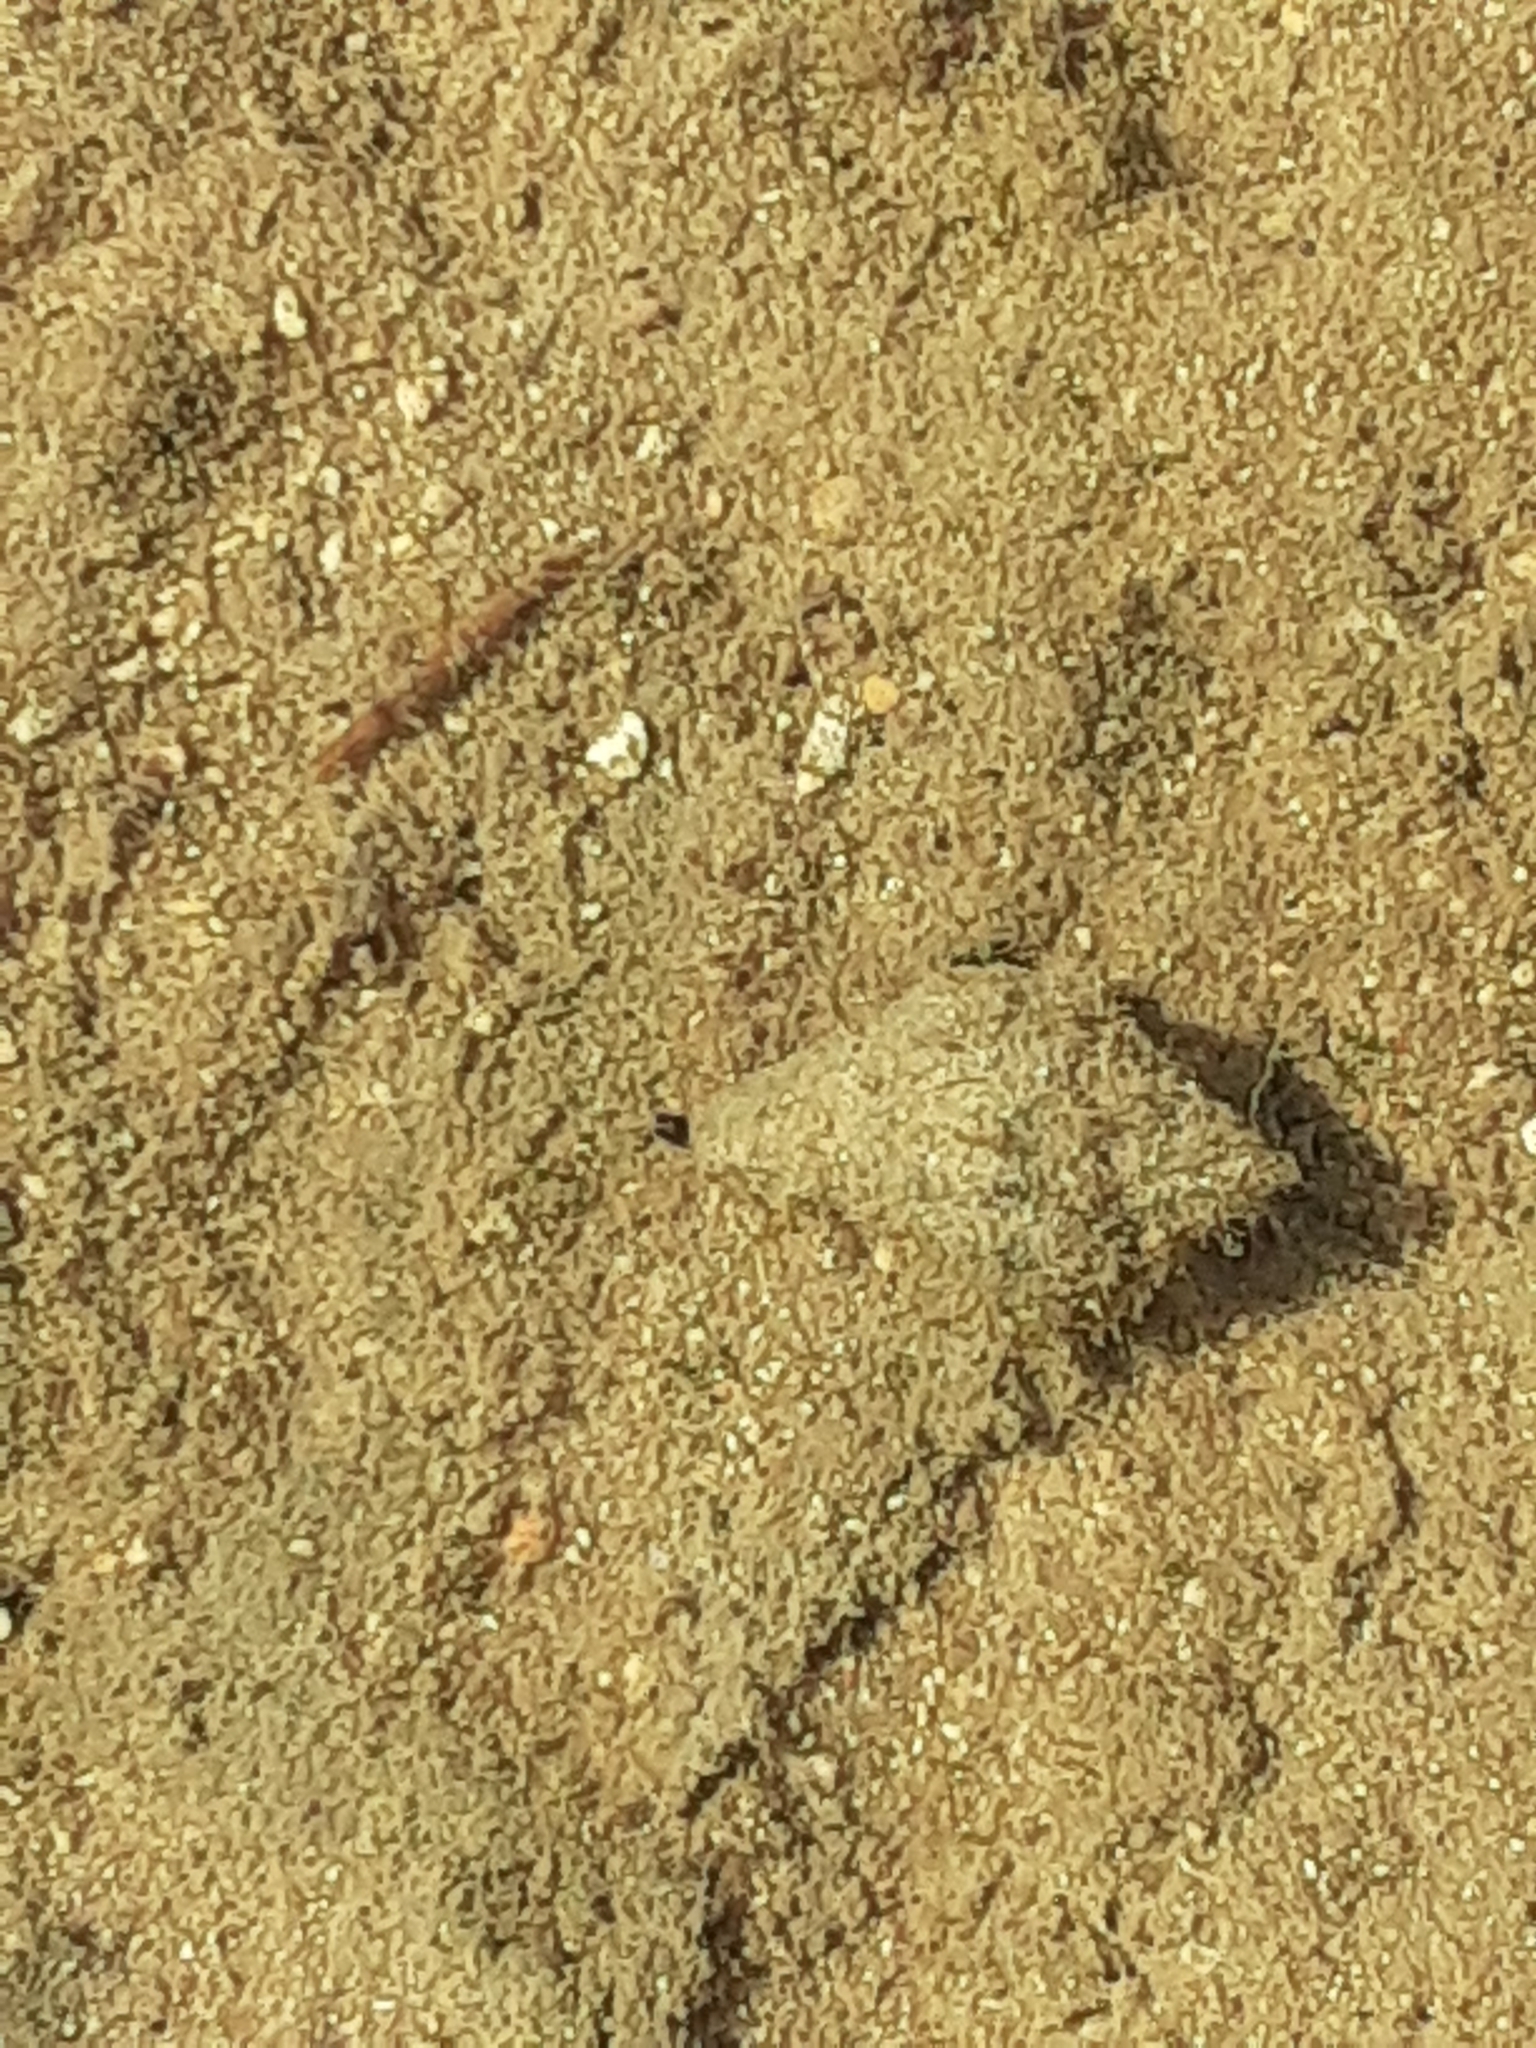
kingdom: Animalia
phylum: Mollusca
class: Gastropoda
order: Neogastropoda
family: Melongenidae
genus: Melongena
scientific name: Melongena corona
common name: American crown conch
